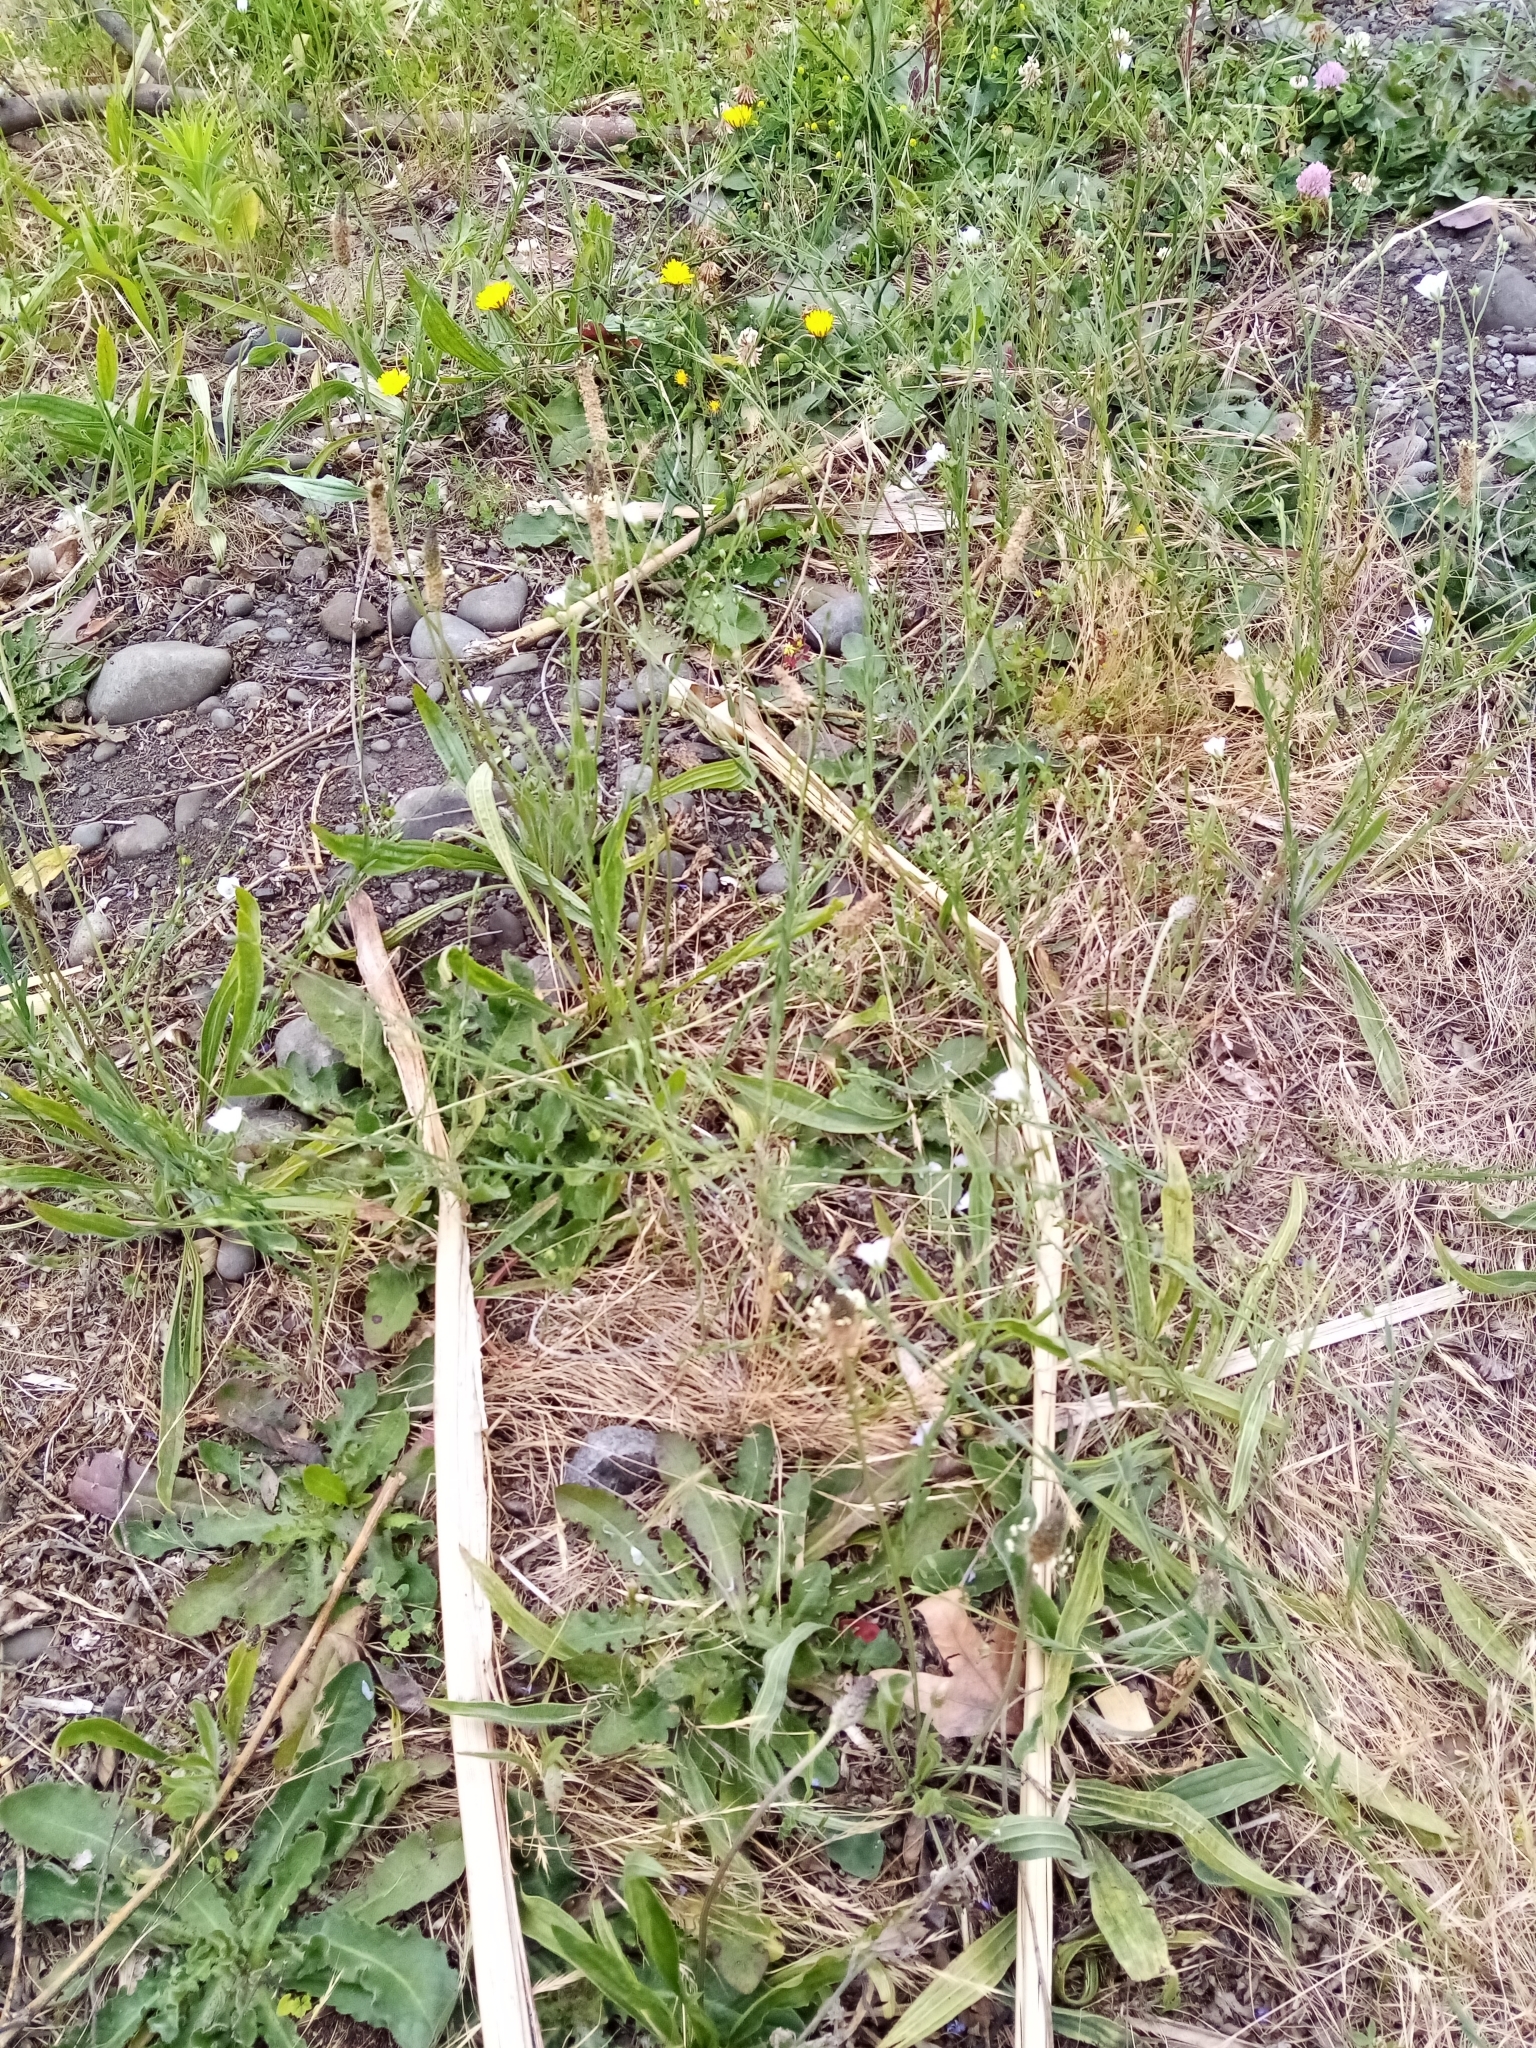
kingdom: Plantae
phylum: Tracheophyta
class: Magnoliopsida
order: Malpighiales
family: Linaceae
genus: Linum
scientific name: Linum bienne
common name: Pale flax
